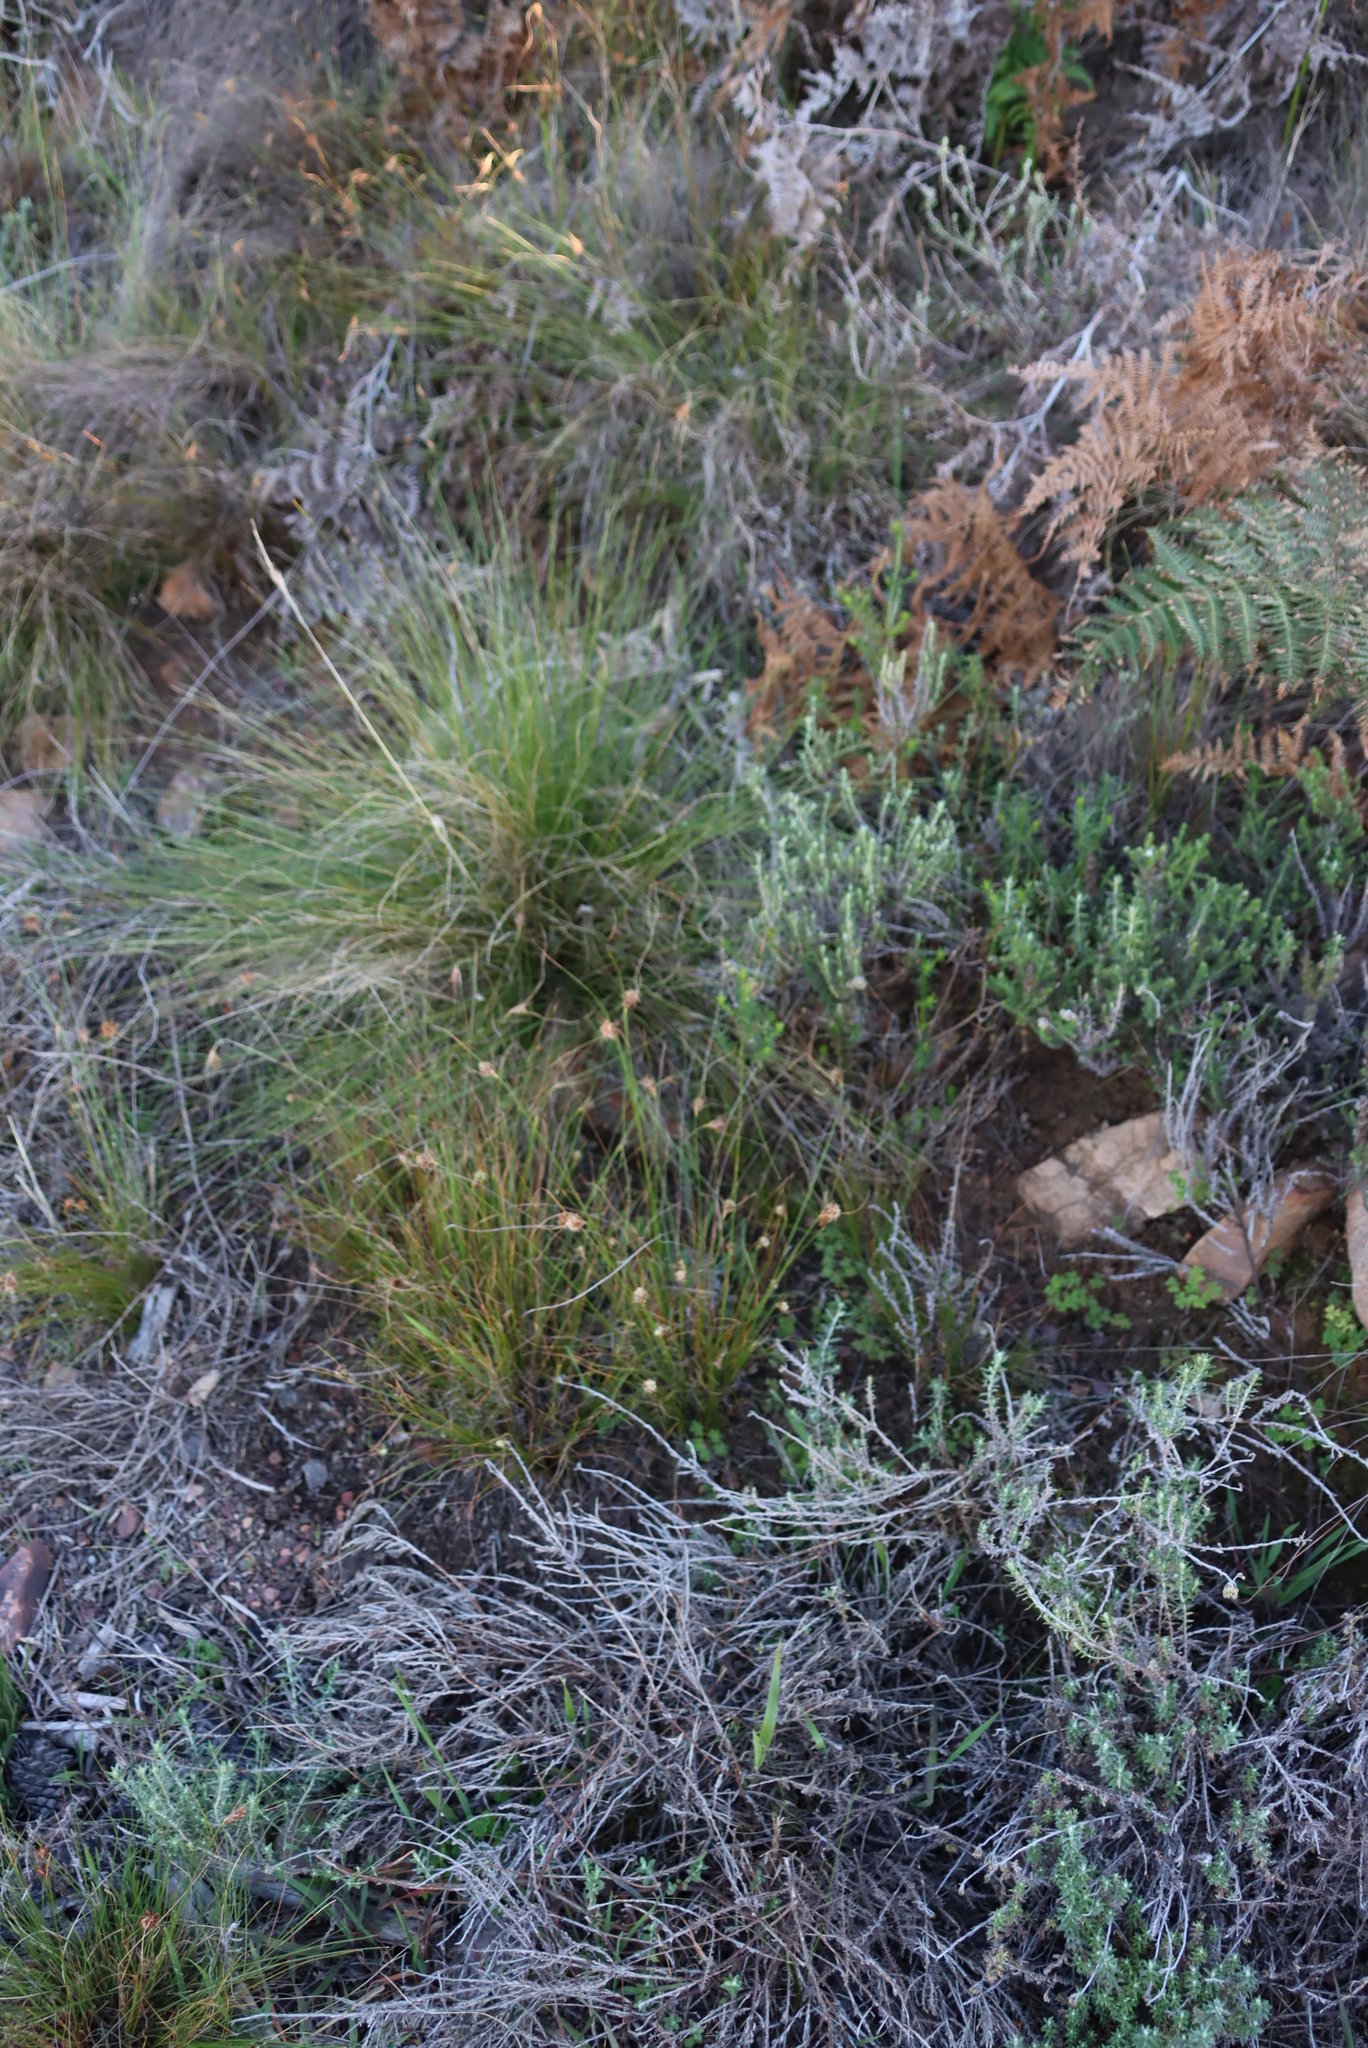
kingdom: Plantae
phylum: Tracheophyta
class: Liliopsida
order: Poales
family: Cyperaceae
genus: Ficinia
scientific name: Ficinia nigrescens
